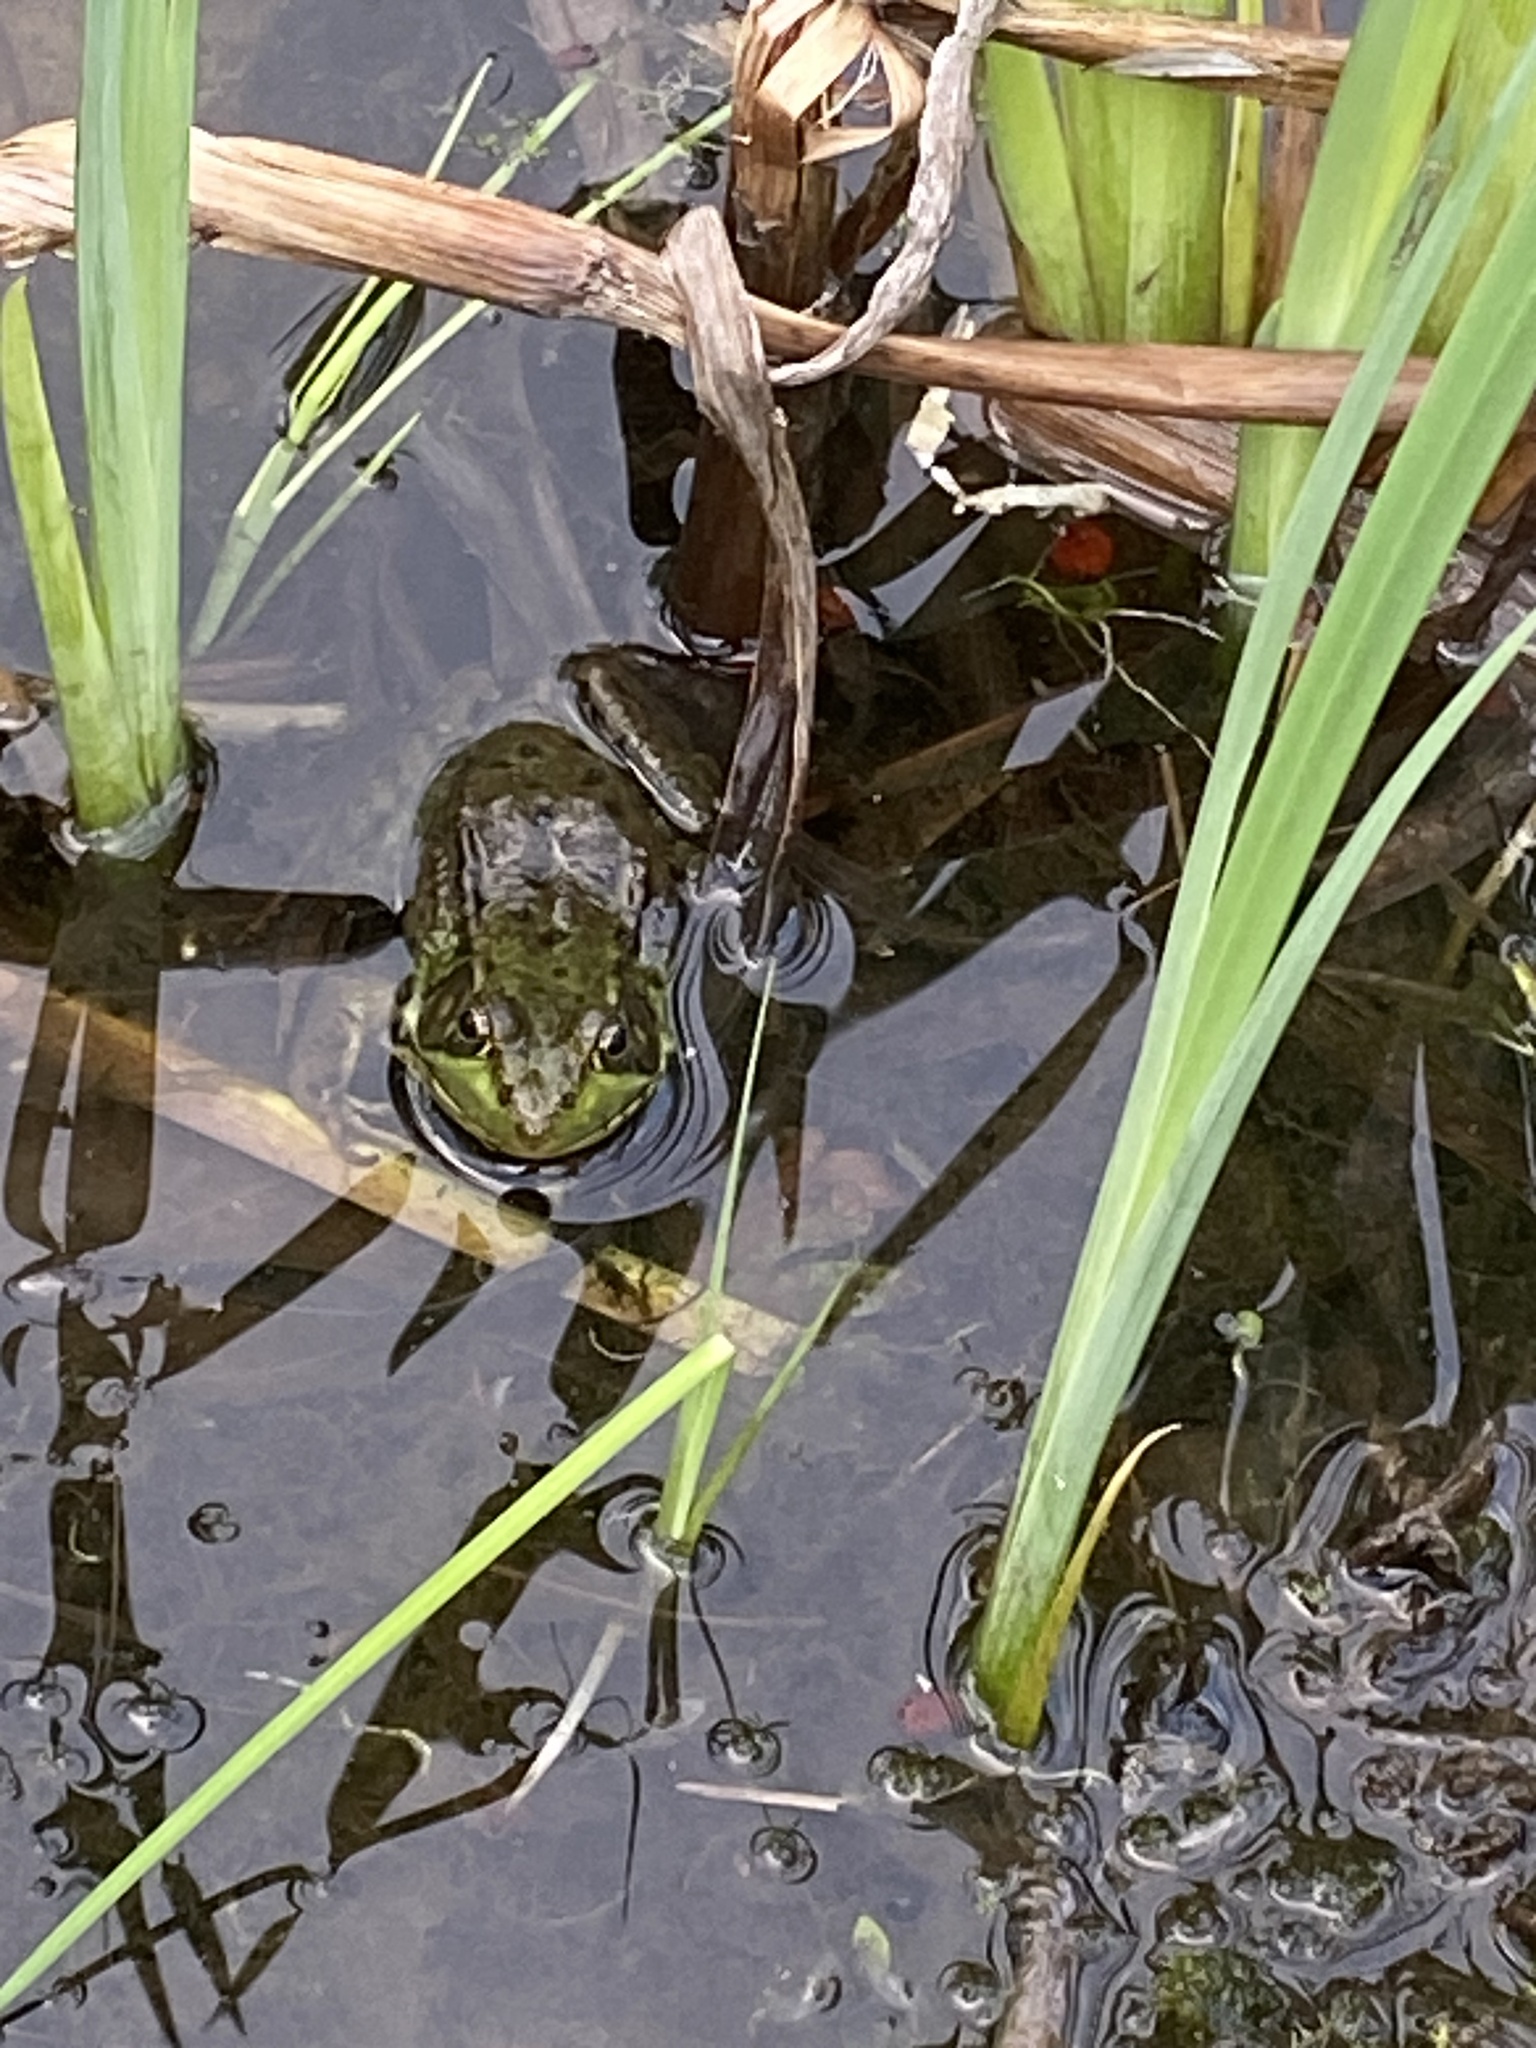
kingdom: Animalia
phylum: Chordata
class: Amphibia
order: Anura
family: Ranidae
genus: Lithobates
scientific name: Lithobates clamitans
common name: Green frog
